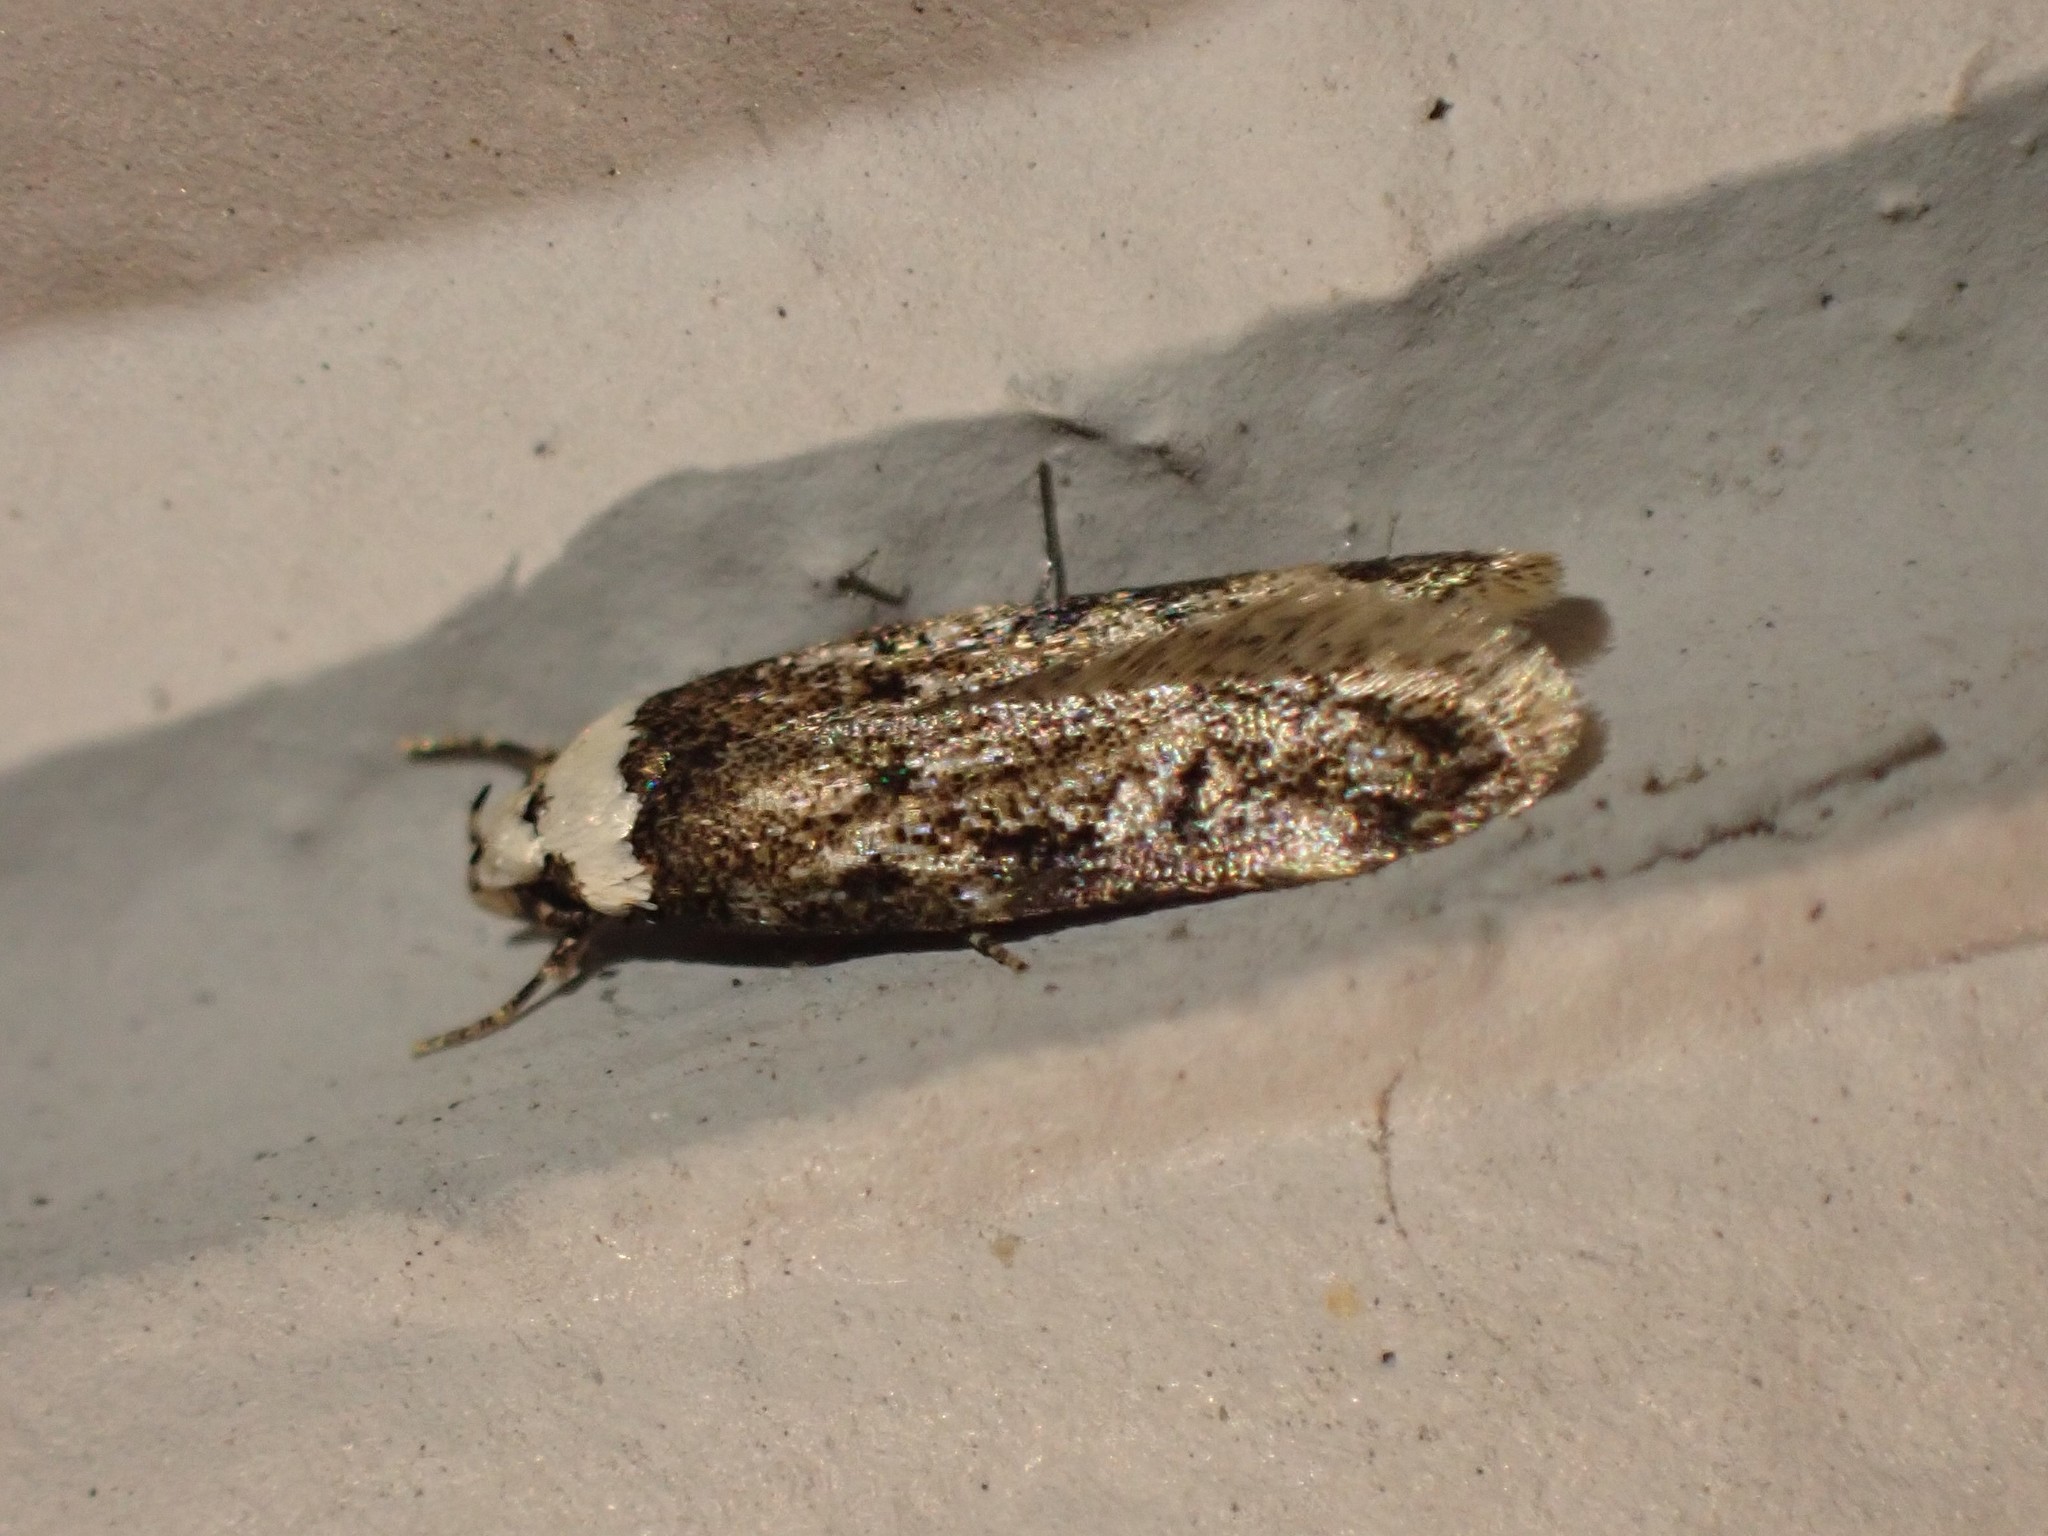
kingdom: Animalia
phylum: Arthropoda
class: Insecta
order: Lepidoptera
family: Oecophoridae
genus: Endrosis
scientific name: Endrosis sarcitrella
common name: White-shouldered house moth
